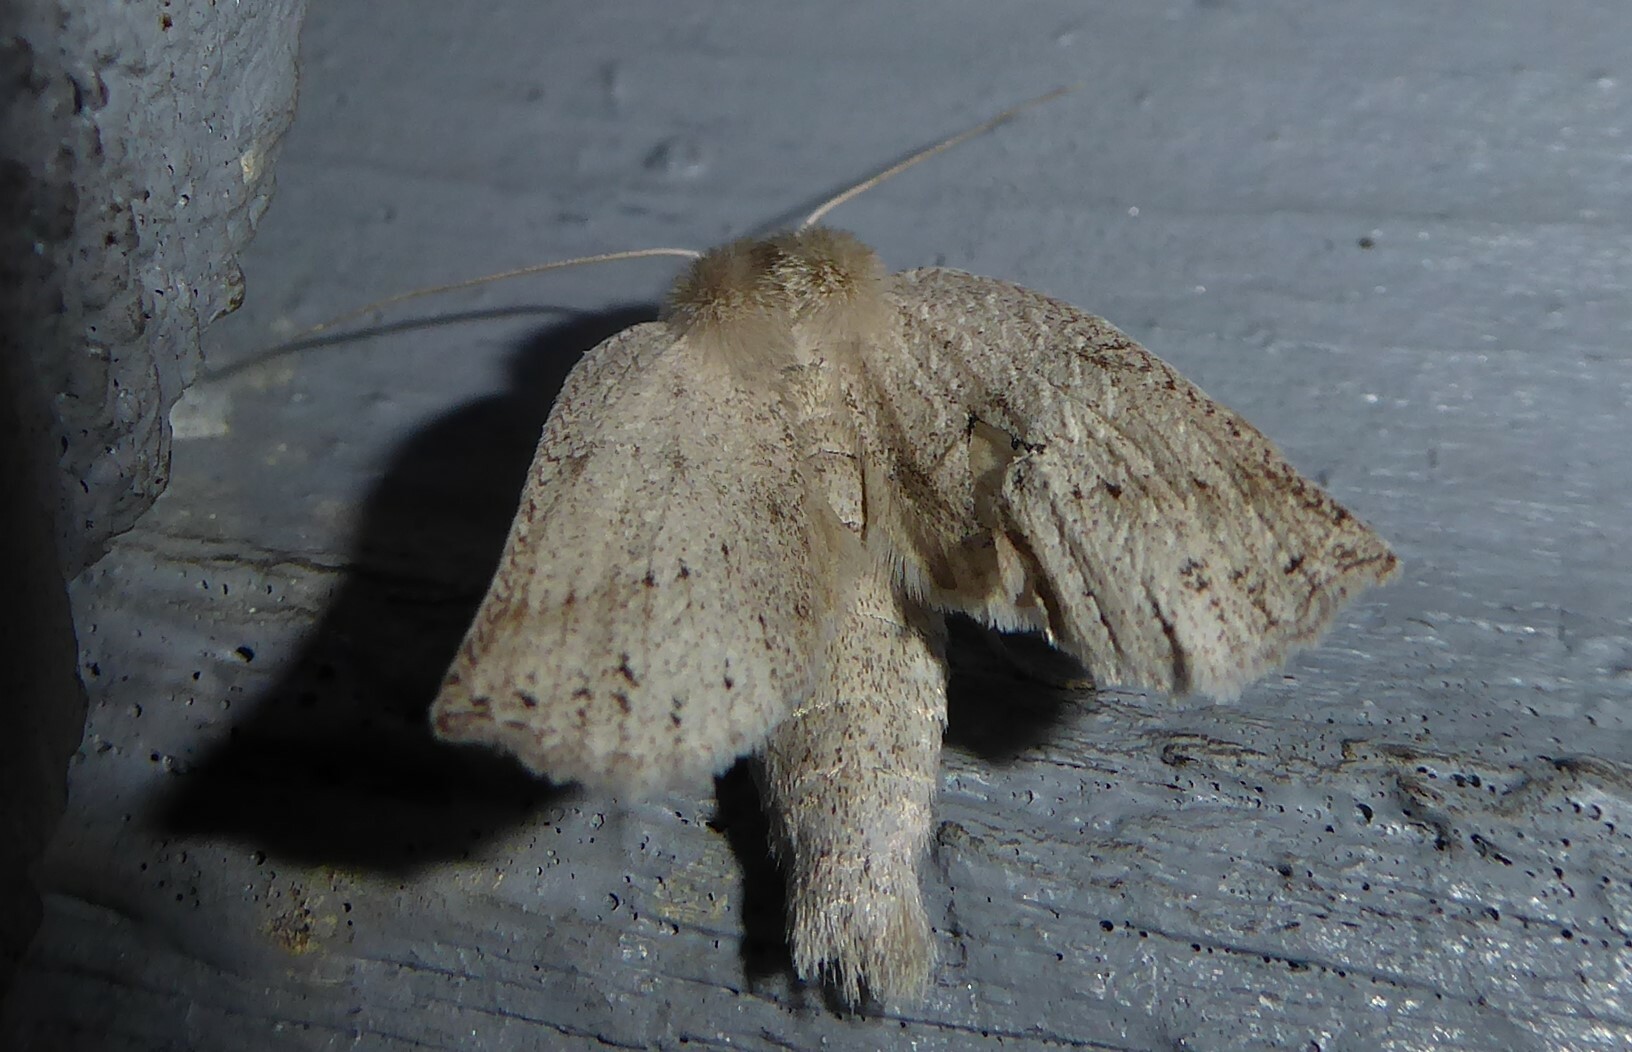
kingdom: Animalia
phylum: Arthropoda
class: Insecta
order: Lepidoptera
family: Geometridae
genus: Declana
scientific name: Declana leptomera
